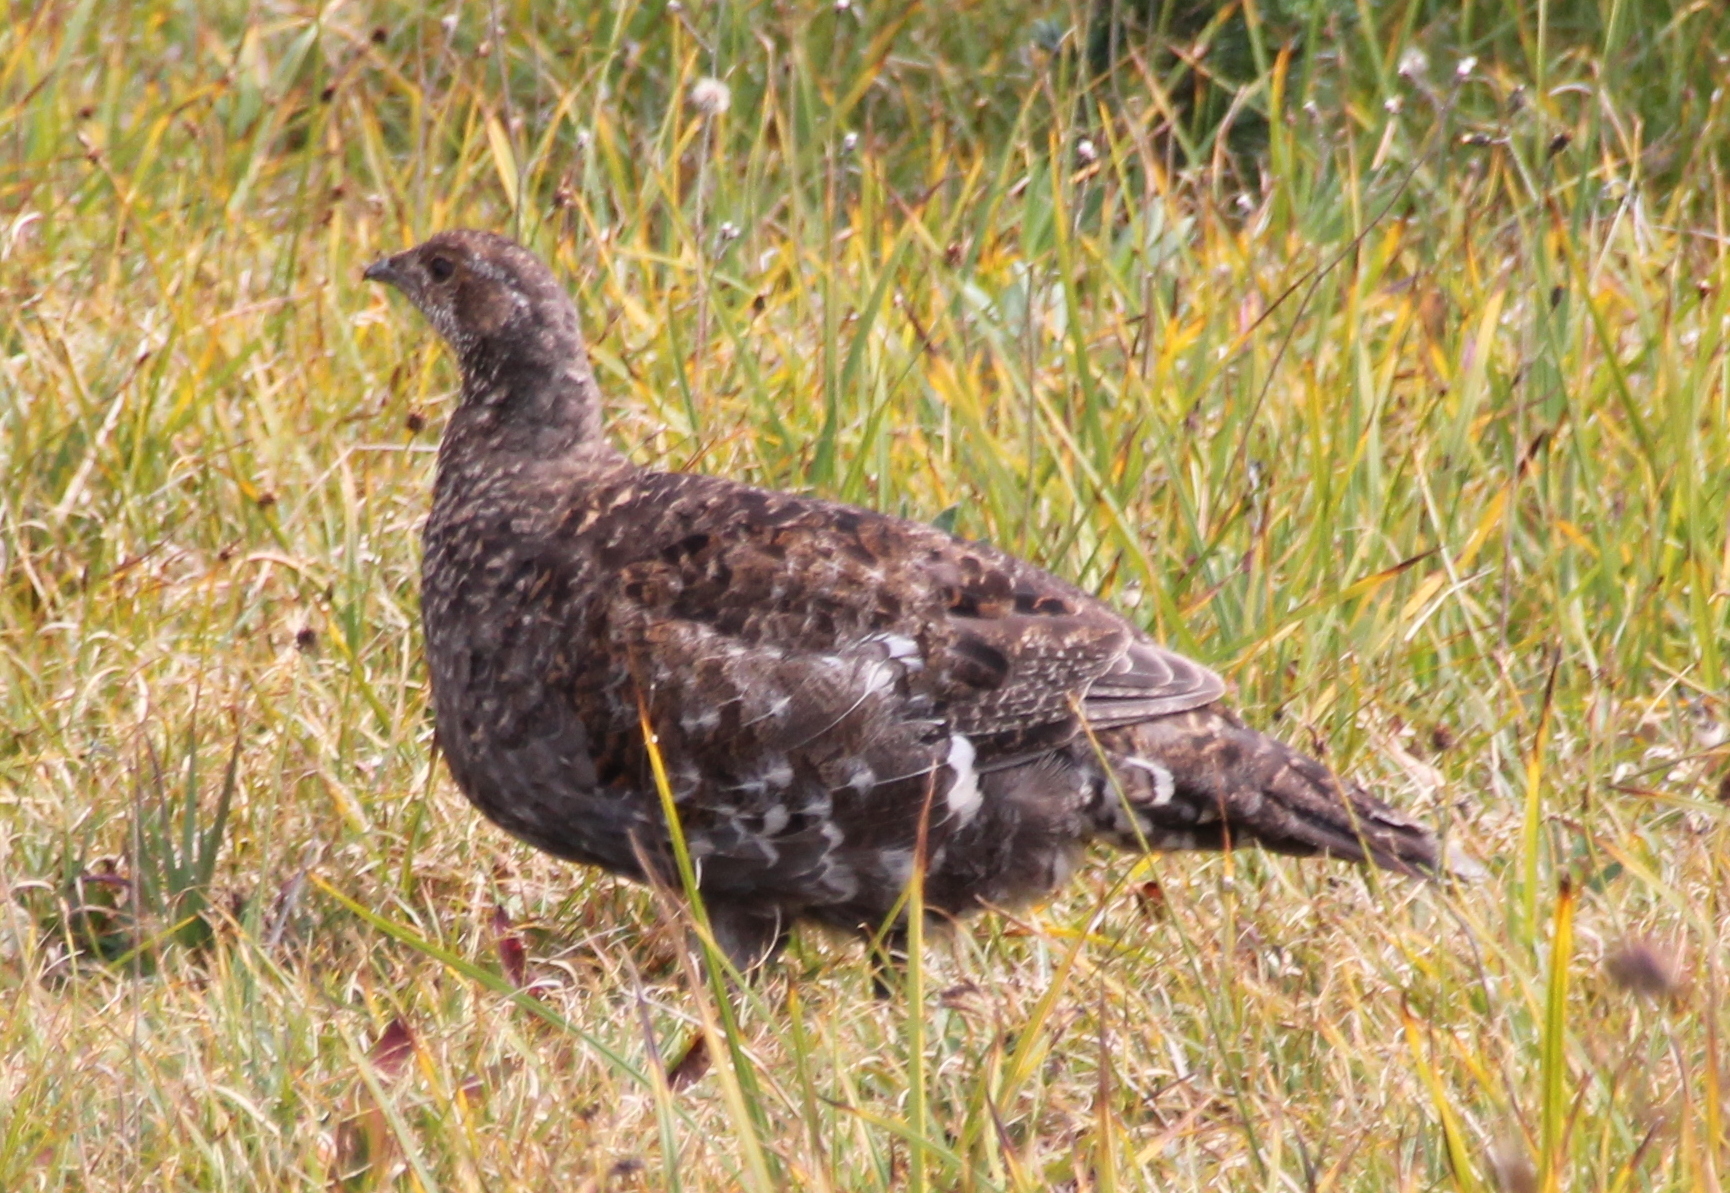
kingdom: Animalia
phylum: Chordata
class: Aves
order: Galliformes
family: Phasianidae
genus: Dendragapus
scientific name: Dendragapus fuliginosus
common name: Sooty grouse
